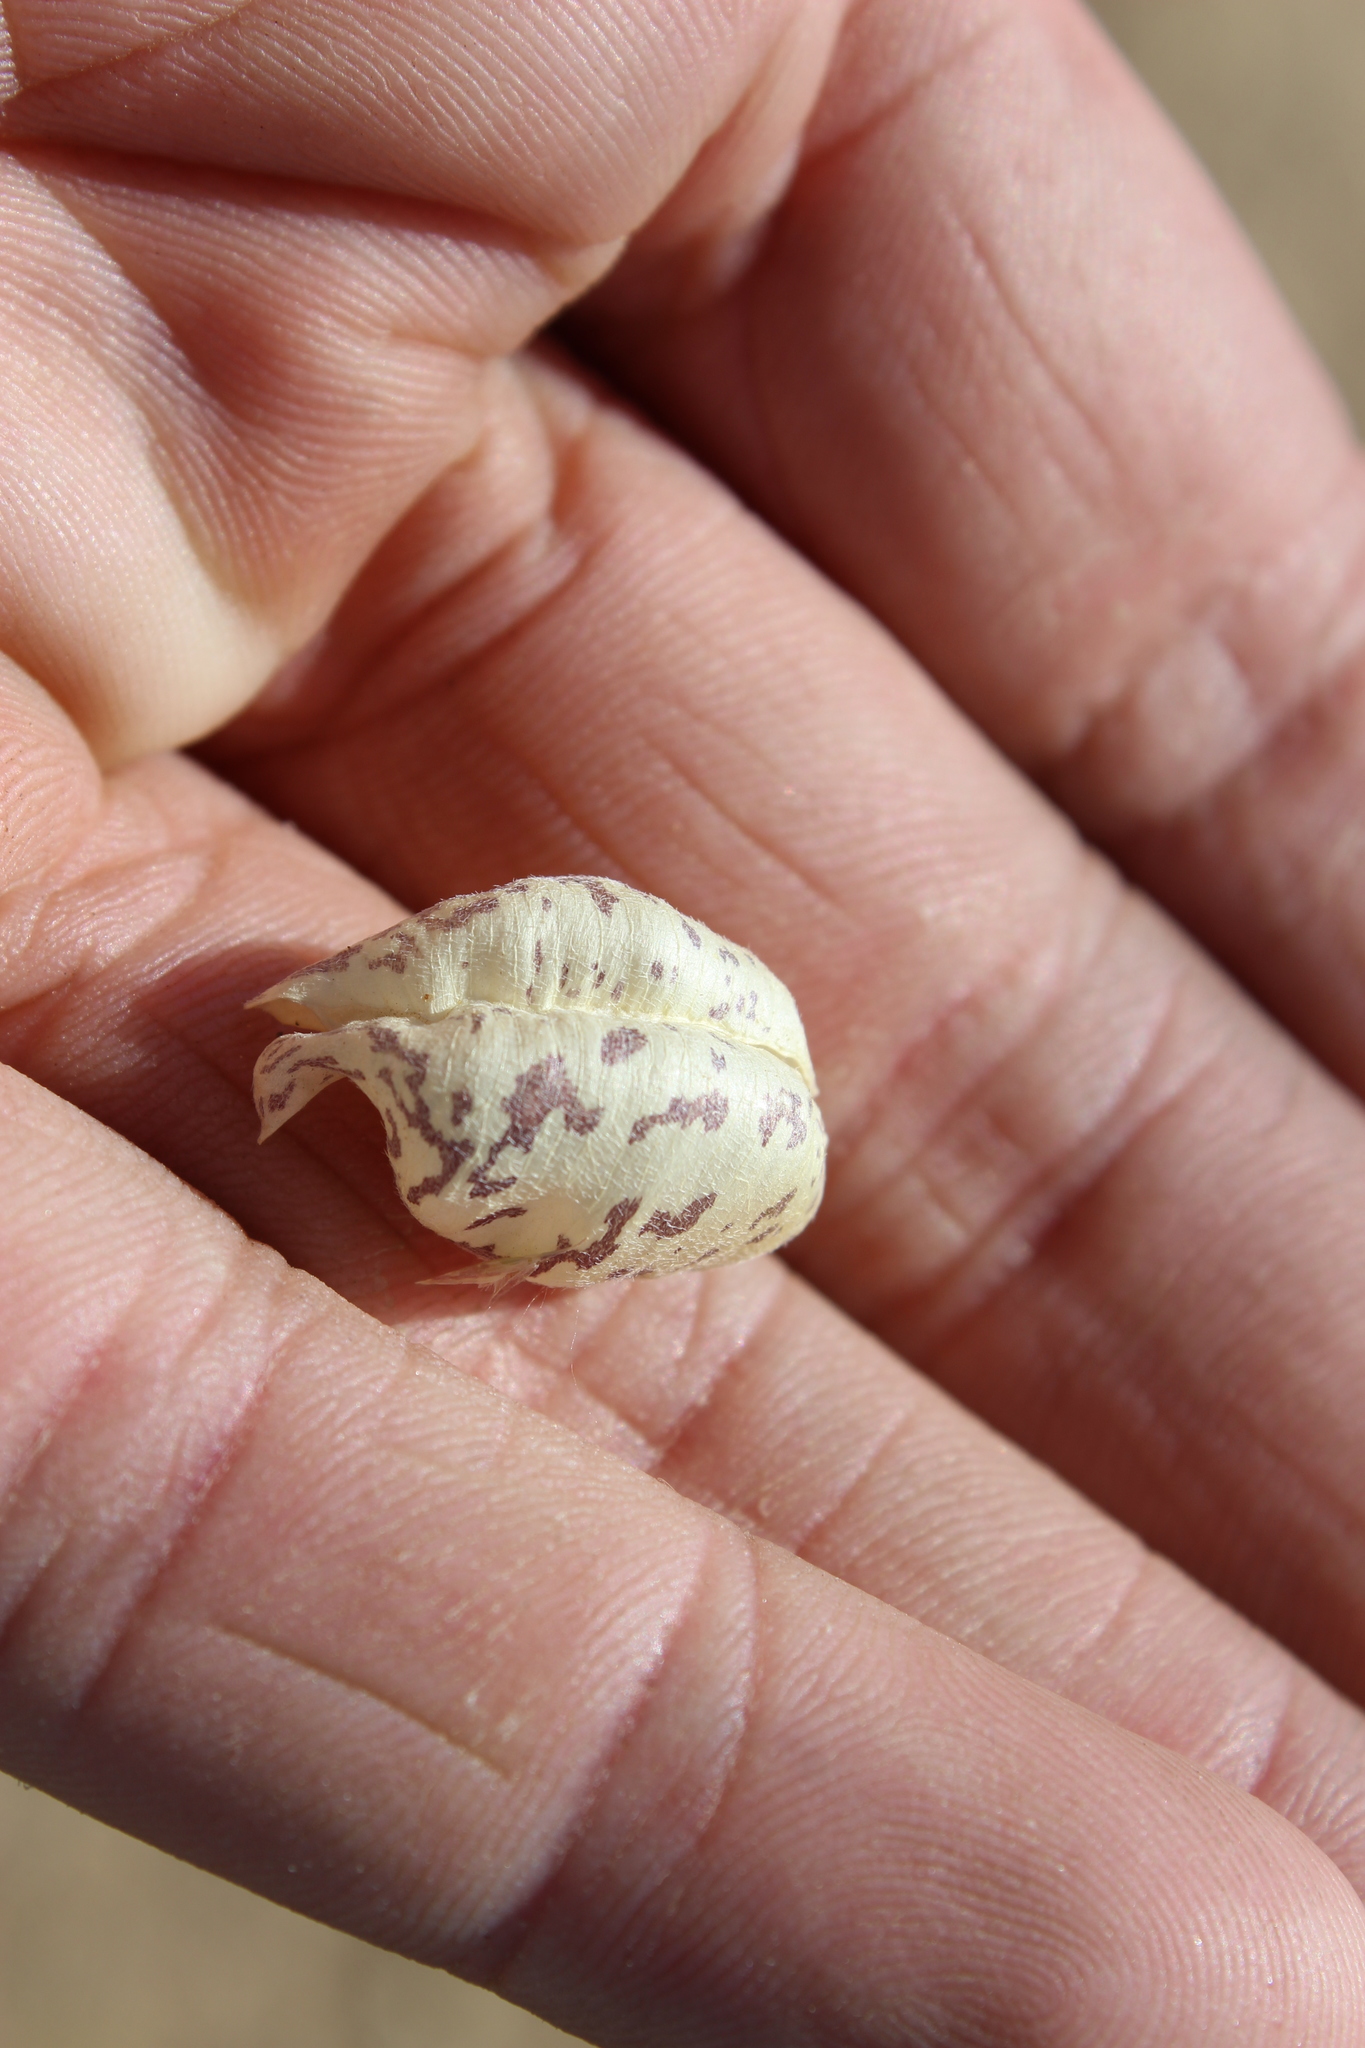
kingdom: Plantae
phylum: Tracheophyta
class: Magnoliopsida
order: Fabales
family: Fabaceae
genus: Astragalus
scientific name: Astragalus lentiginosus
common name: Freckled milkvetch
